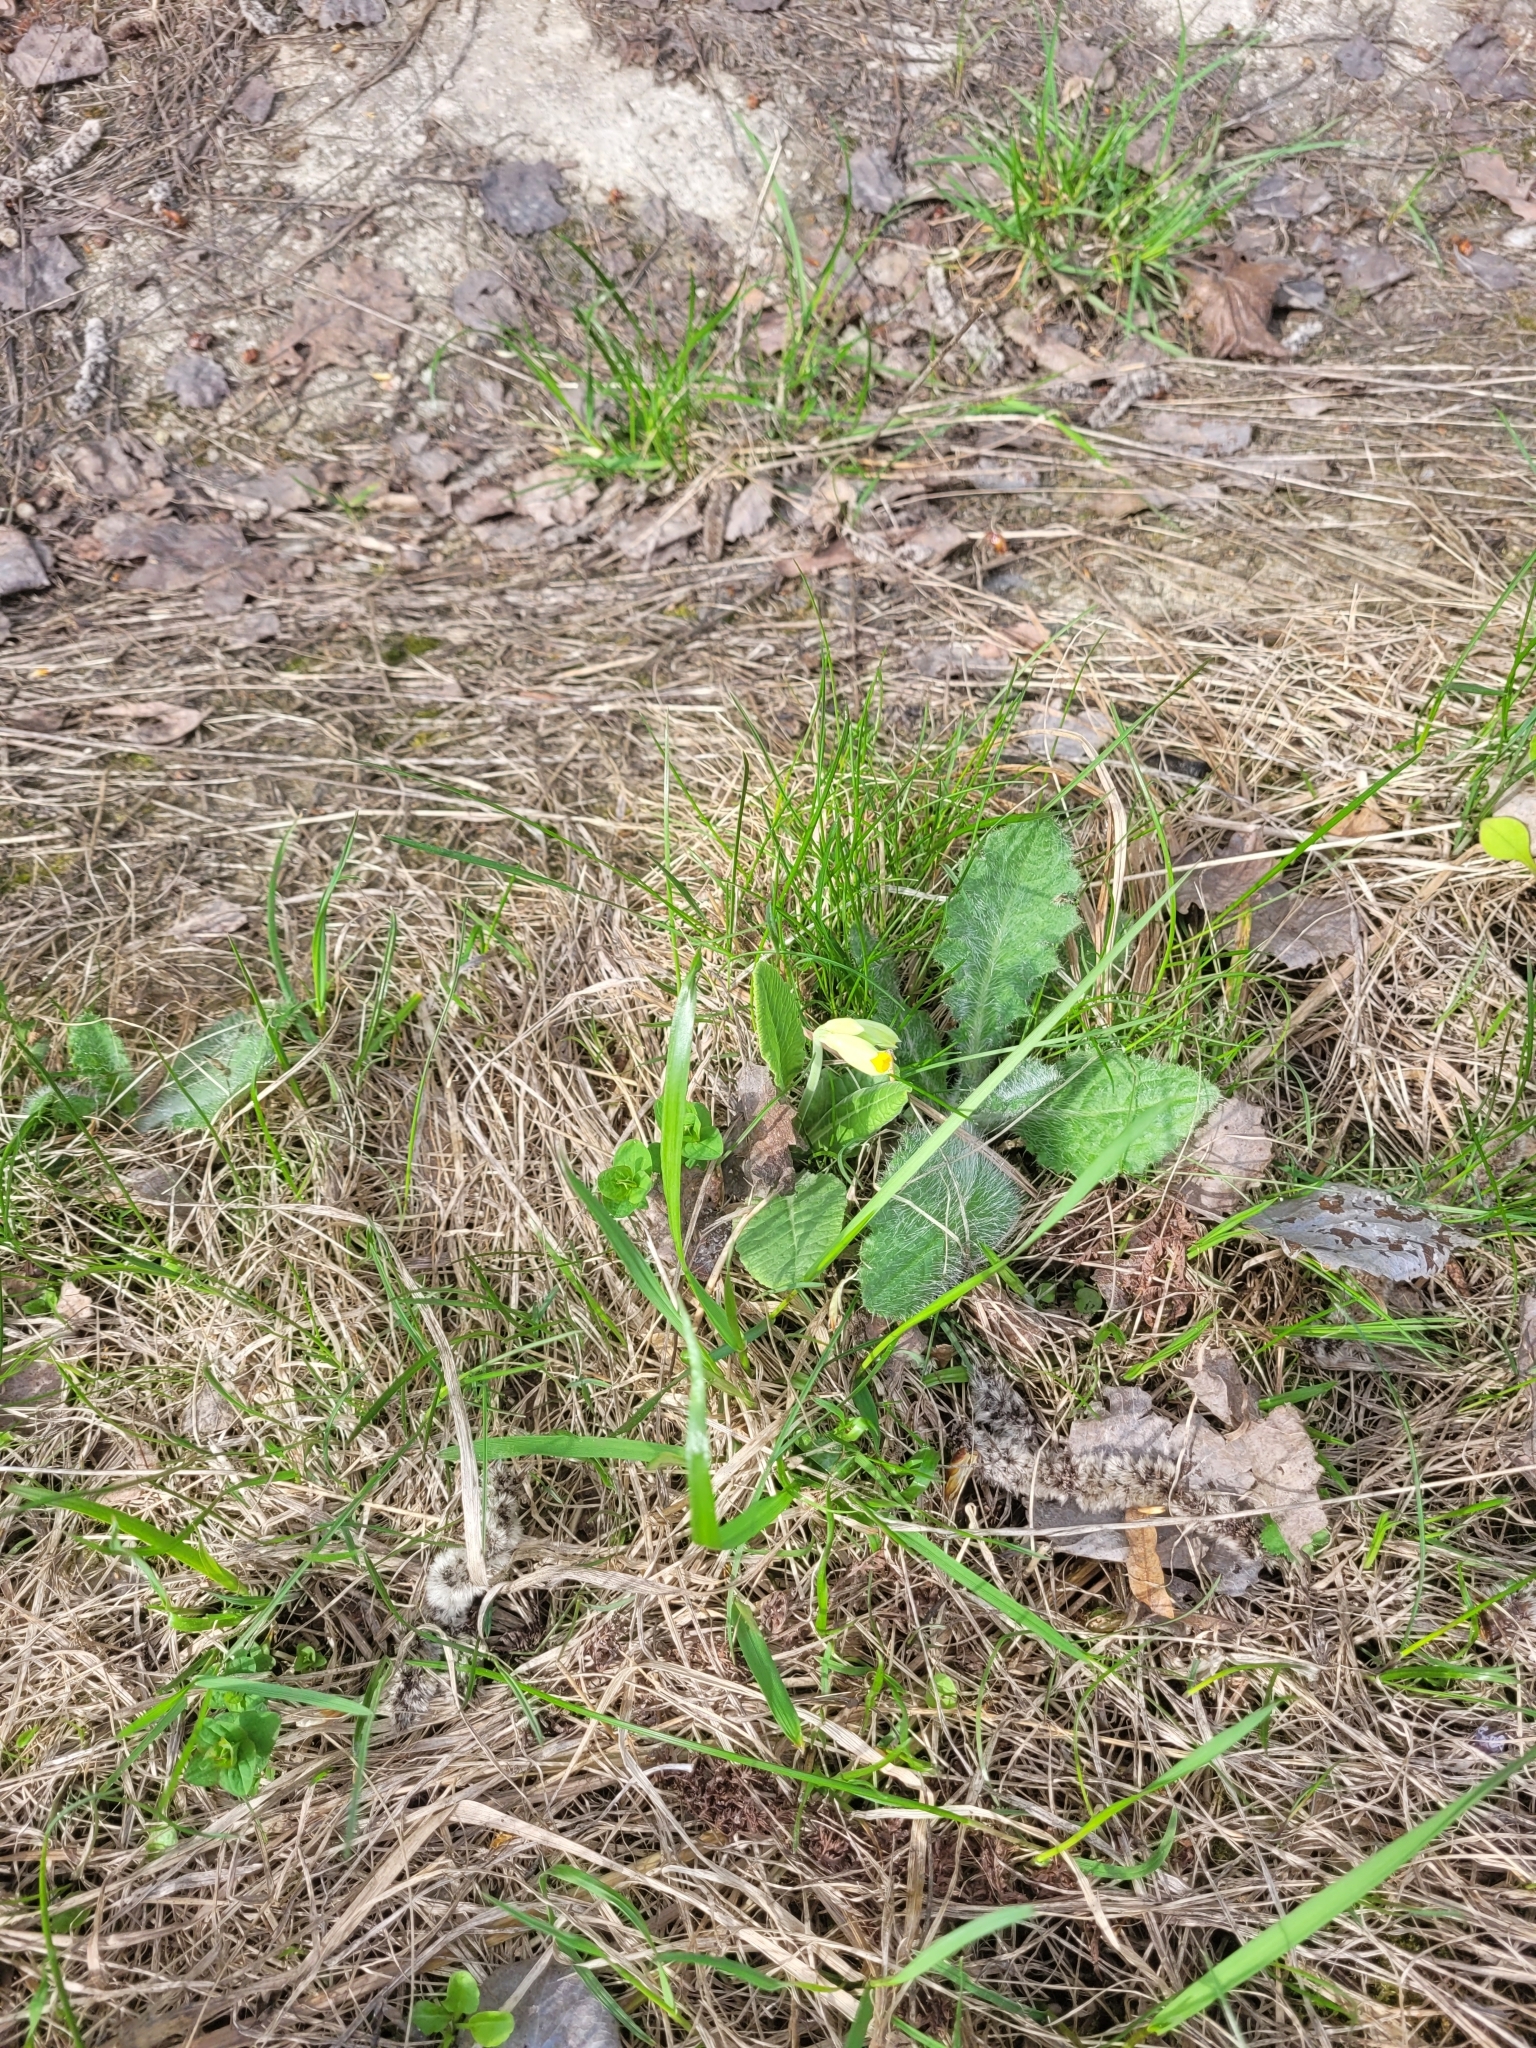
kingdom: Plantae
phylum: Tracheophyta
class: Magnoliopsida
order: Ericales
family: Primulaceae
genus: Primula
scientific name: Primula veris
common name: Cowslip
